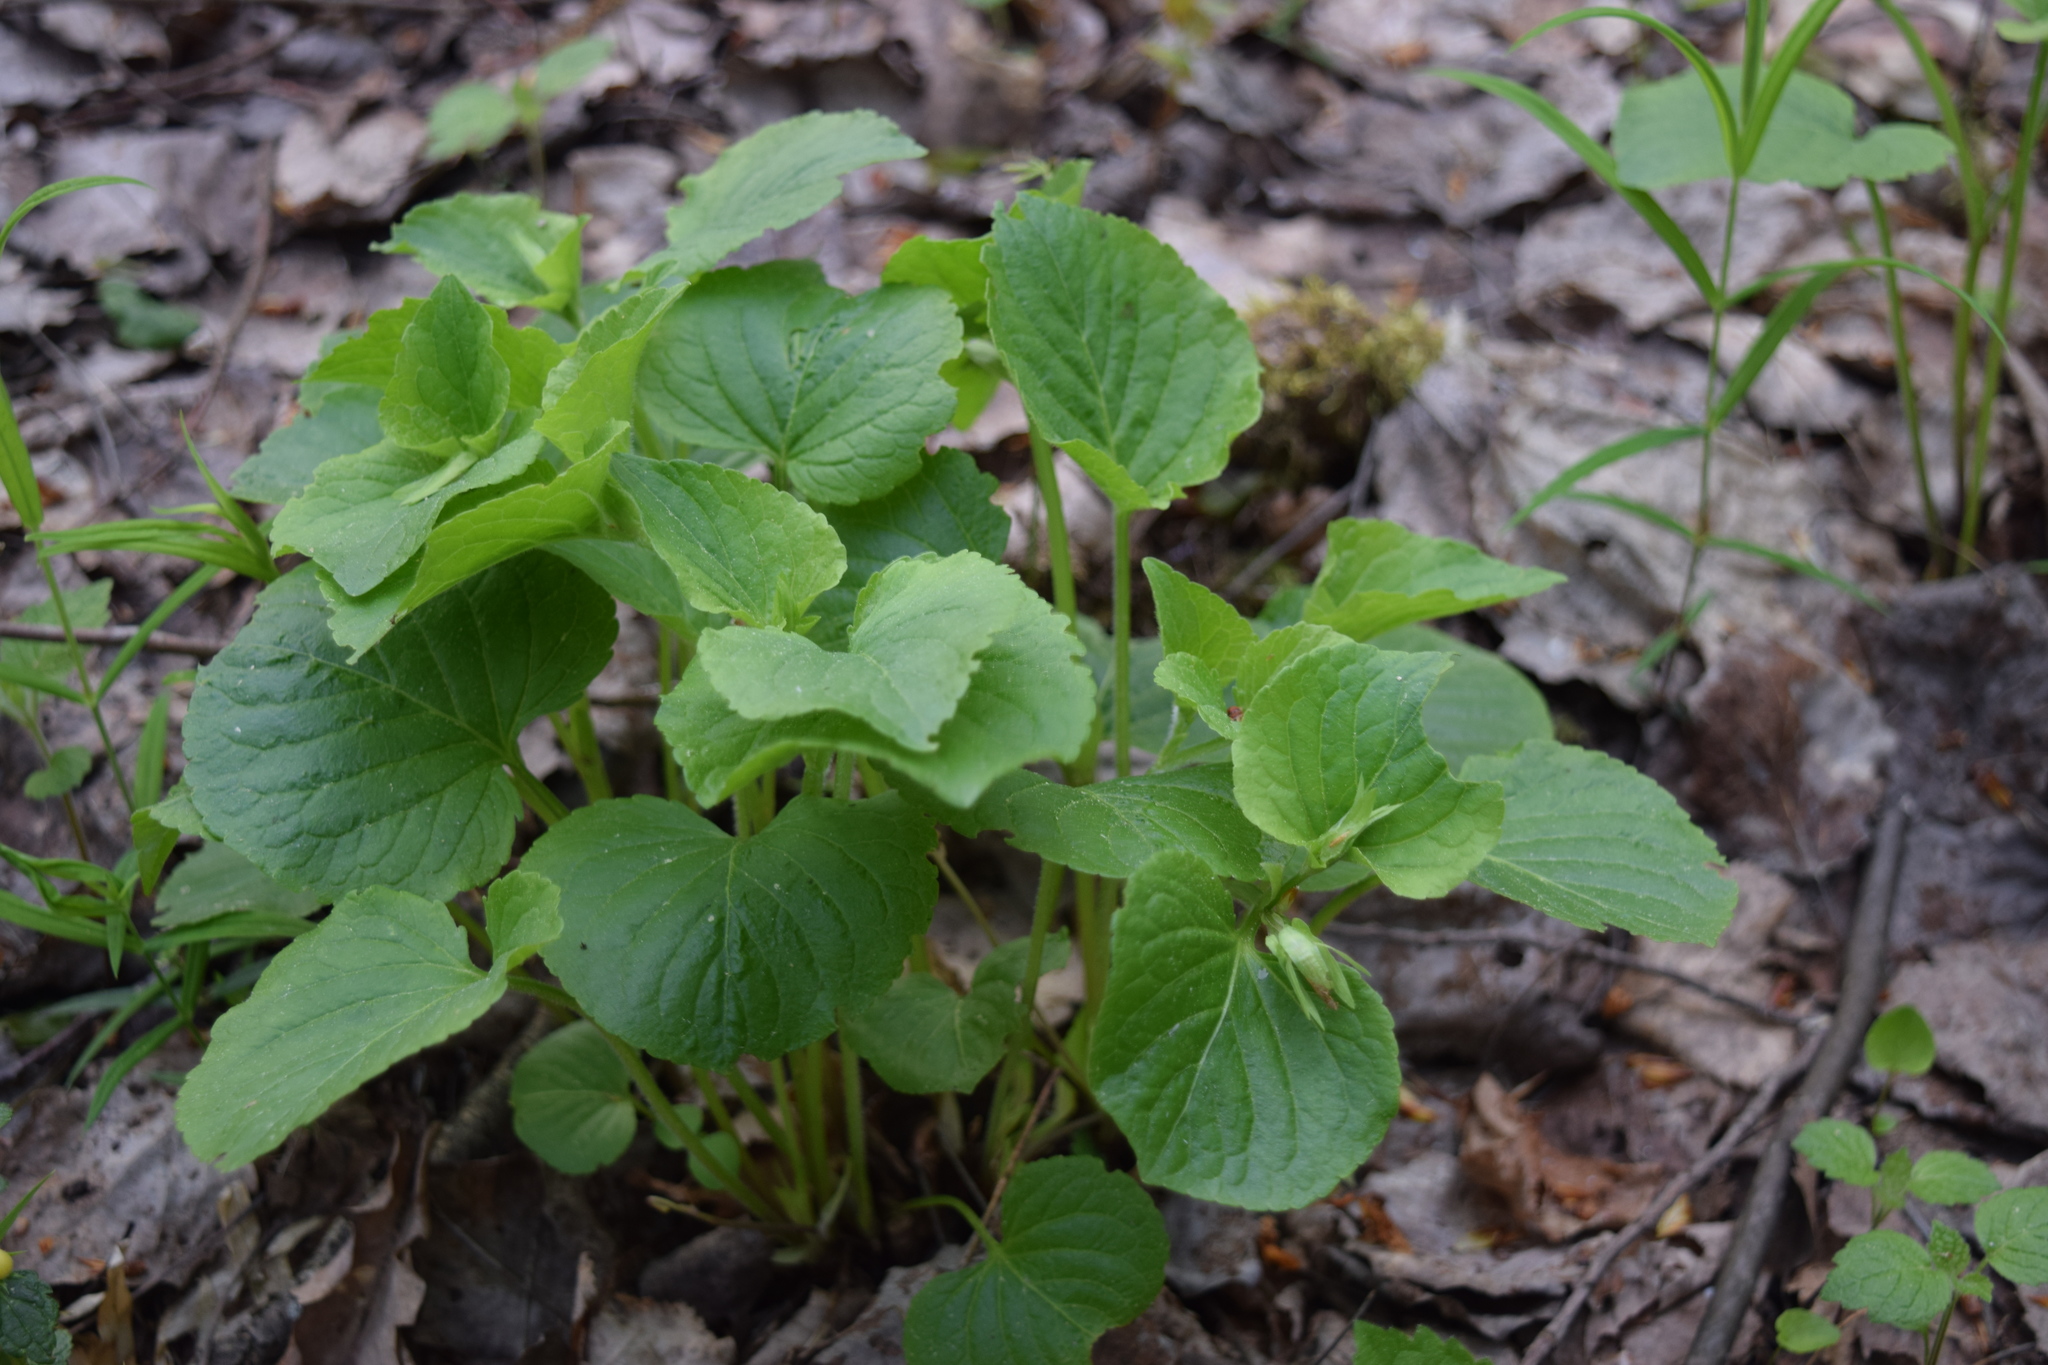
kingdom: Plantae
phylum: Tracheophyta
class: Magnoliopsida
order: Malpighiales
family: Violaceae
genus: Viola
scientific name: Viola mirabilis
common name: Wonder violet
